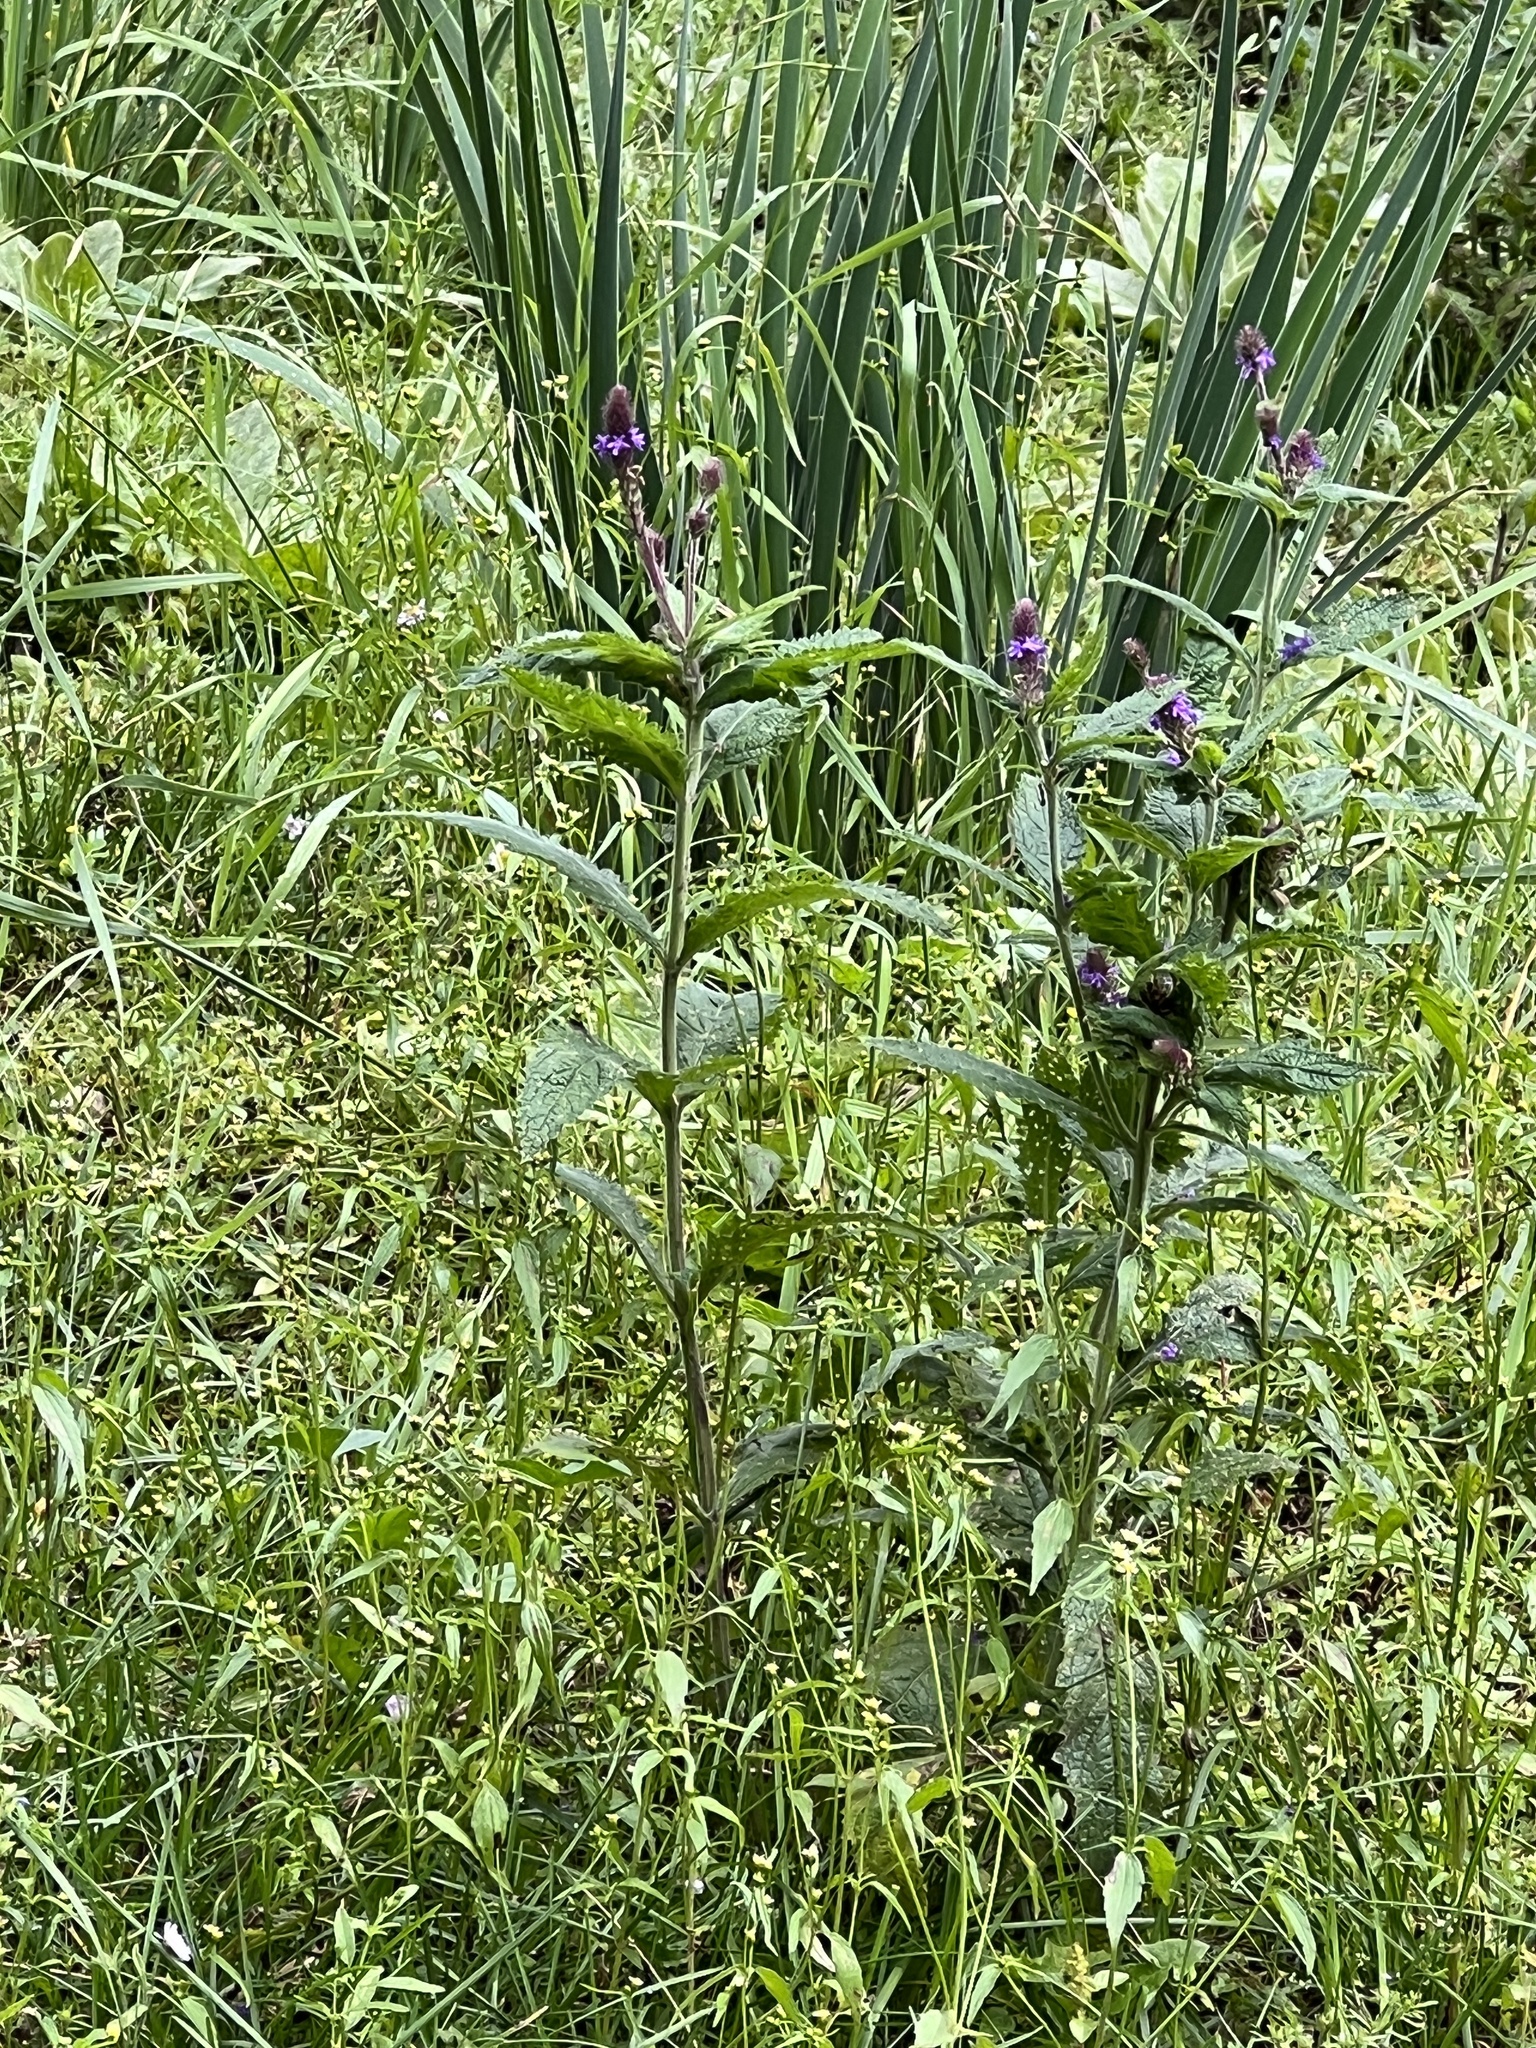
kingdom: Plantae
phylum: Tracheophyta
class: Magnoliopsida
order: Lamiales
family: Verbenaceae
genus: Verbena
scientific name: Verbena macdougalii
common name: New mexico vervain
